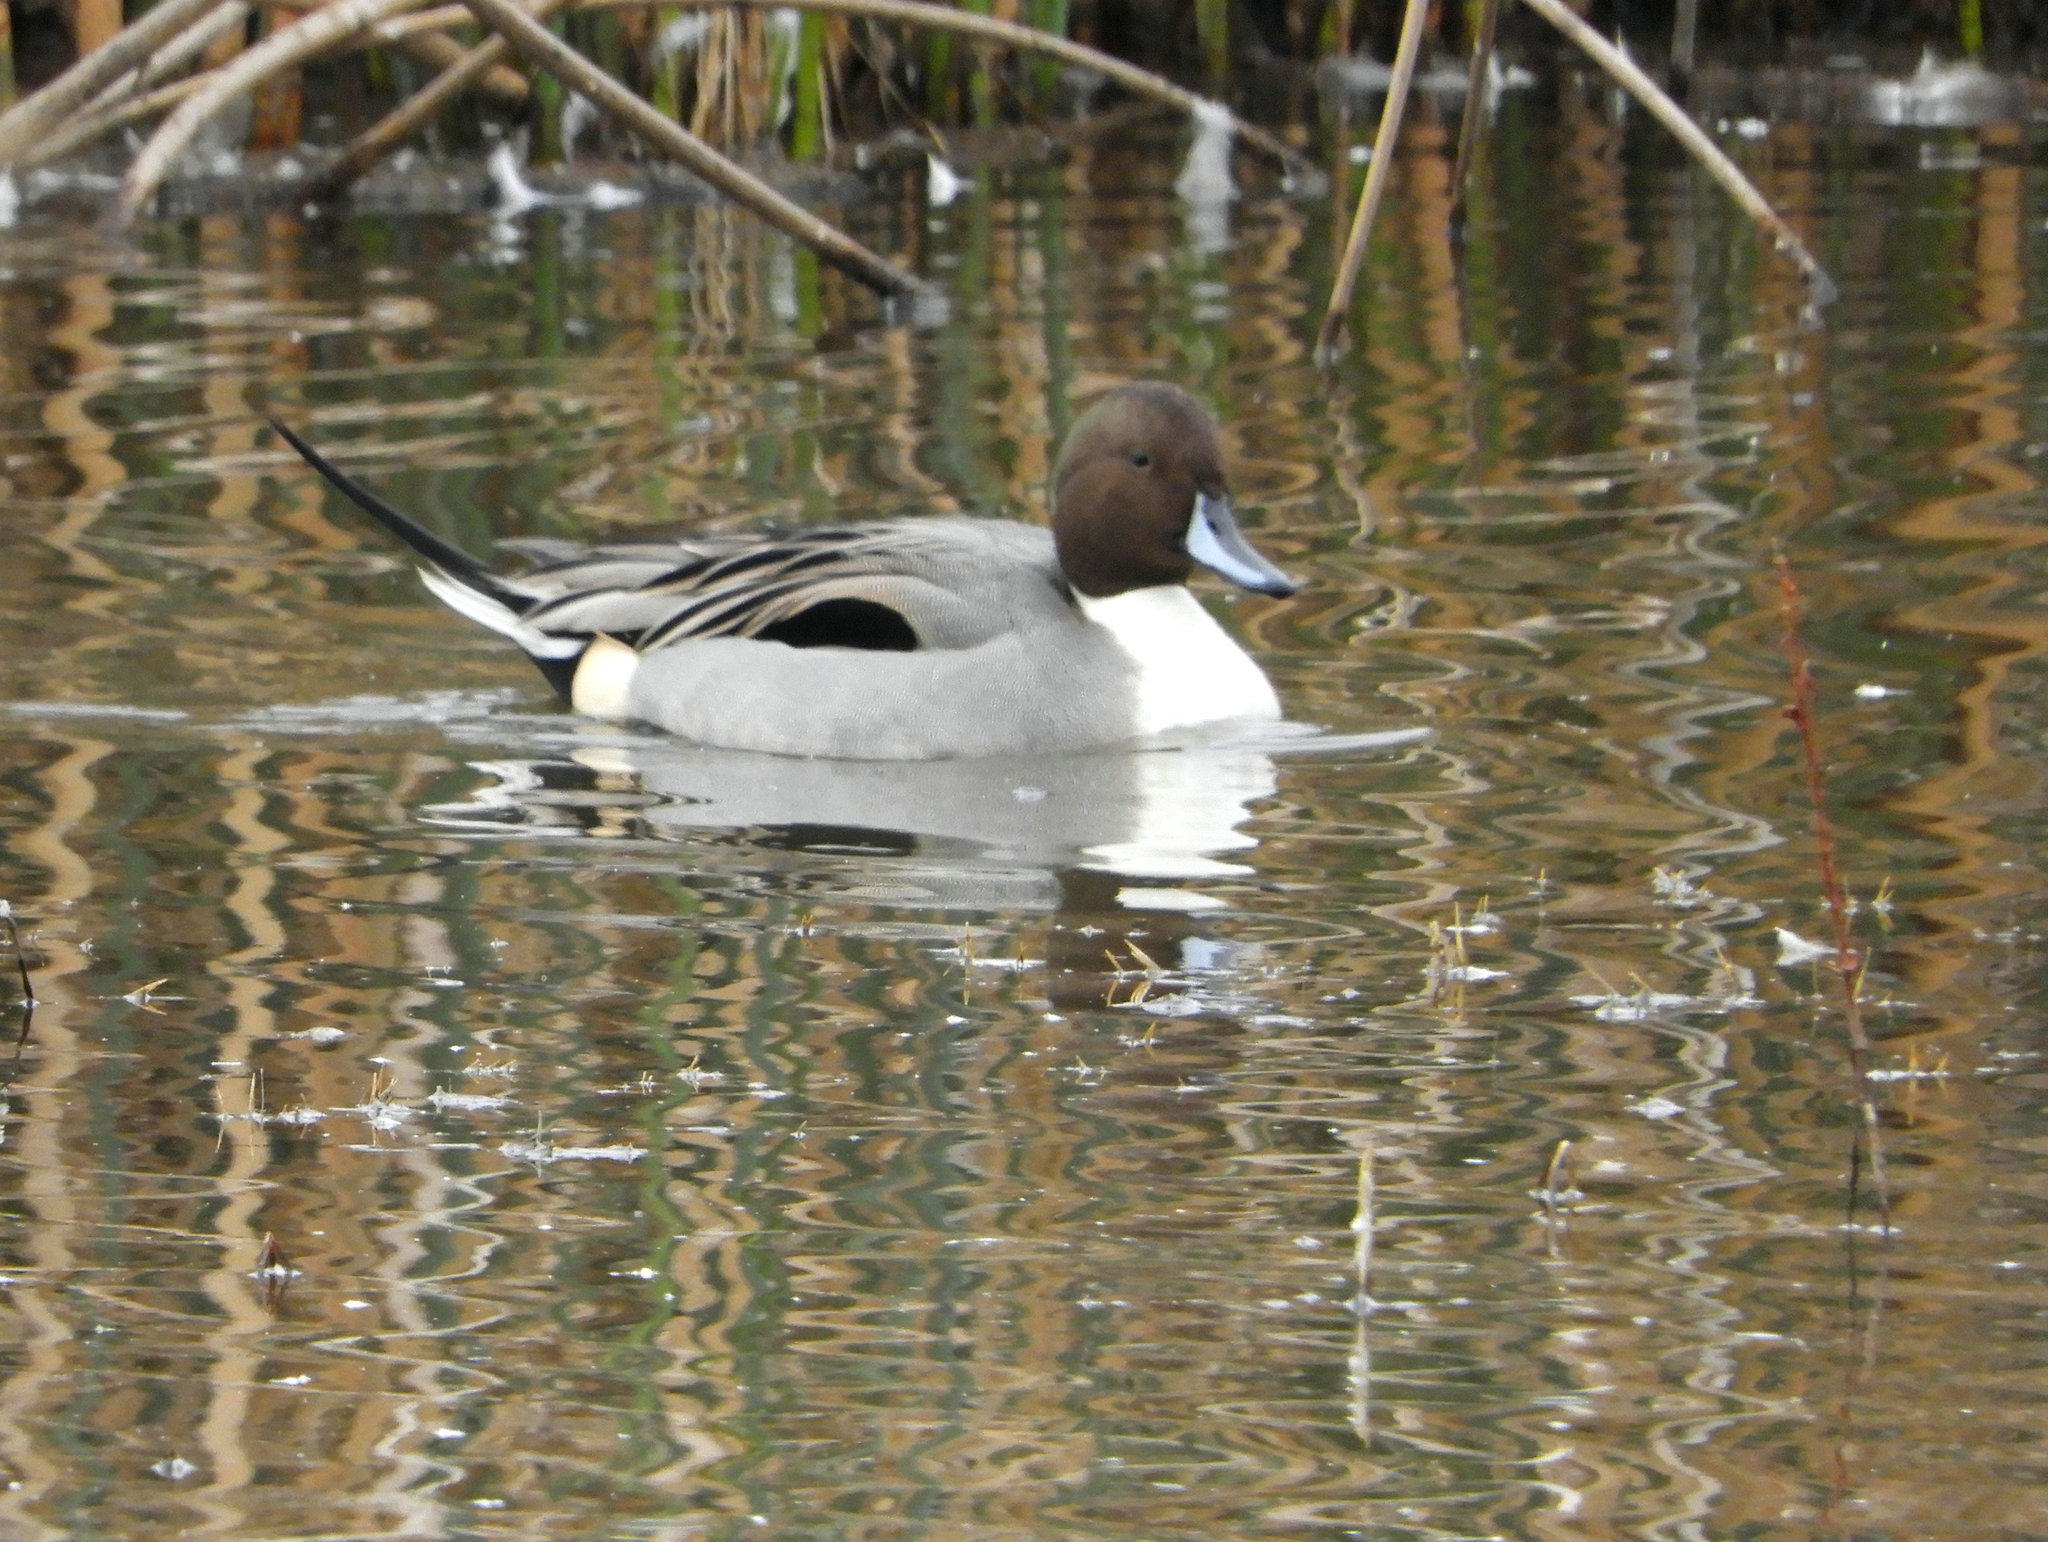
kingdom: Animalia
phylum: Chordata
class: Aves
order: Anseriformes
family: Anatidae
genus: Anas
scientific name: Anas acuta
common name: Northern pintail
